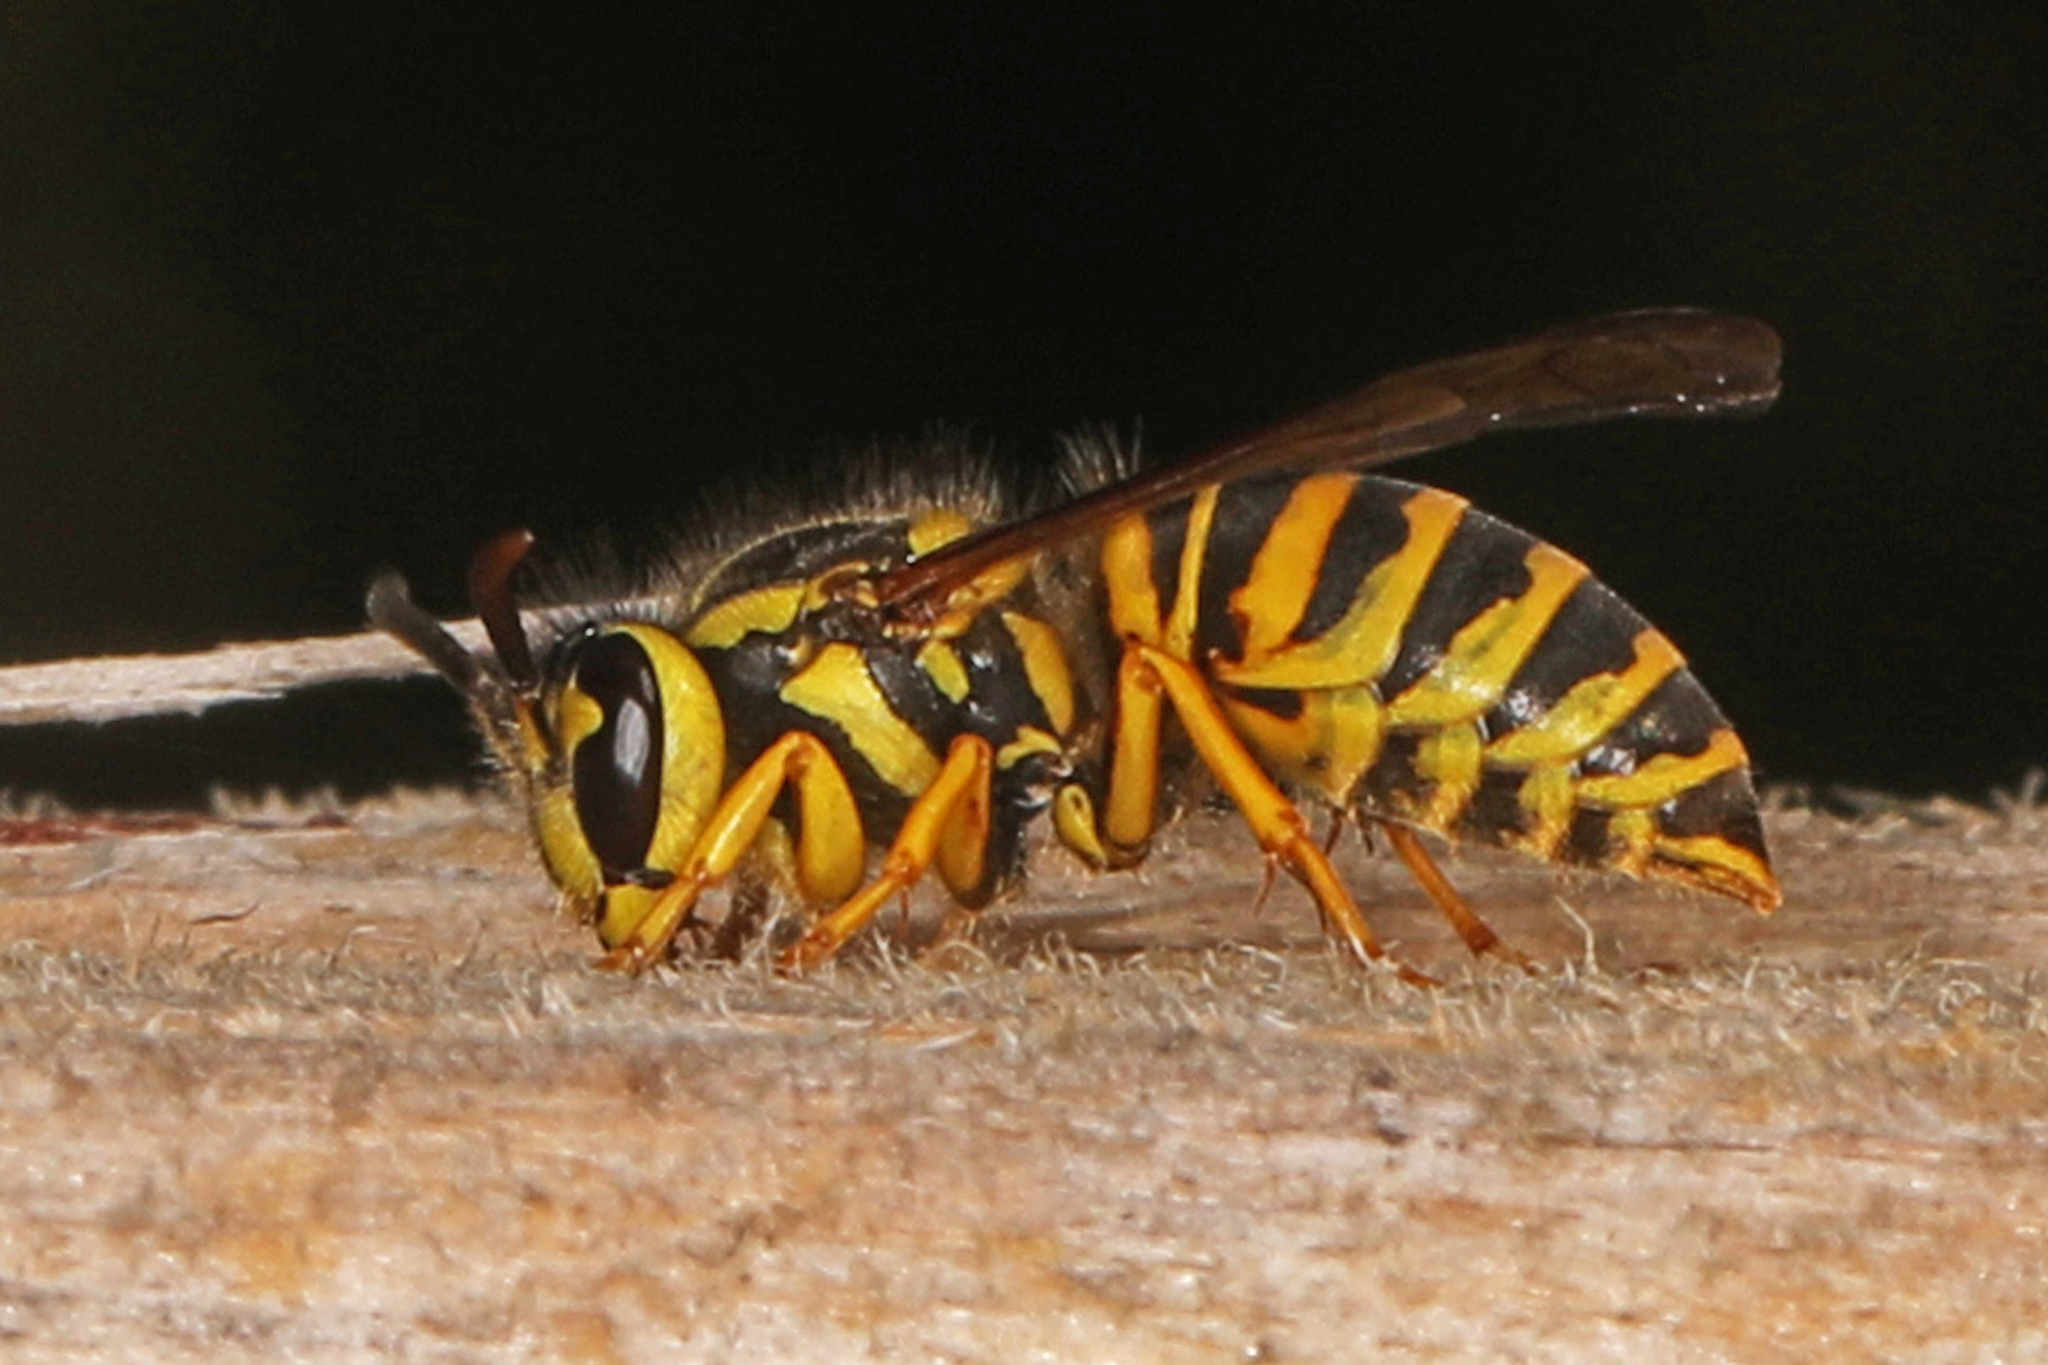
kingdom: Animalia
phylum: Arthropoda
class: Insecta
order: Hymenoptera
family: Vespidae
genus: Vespula
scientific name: Vespula squamosa
